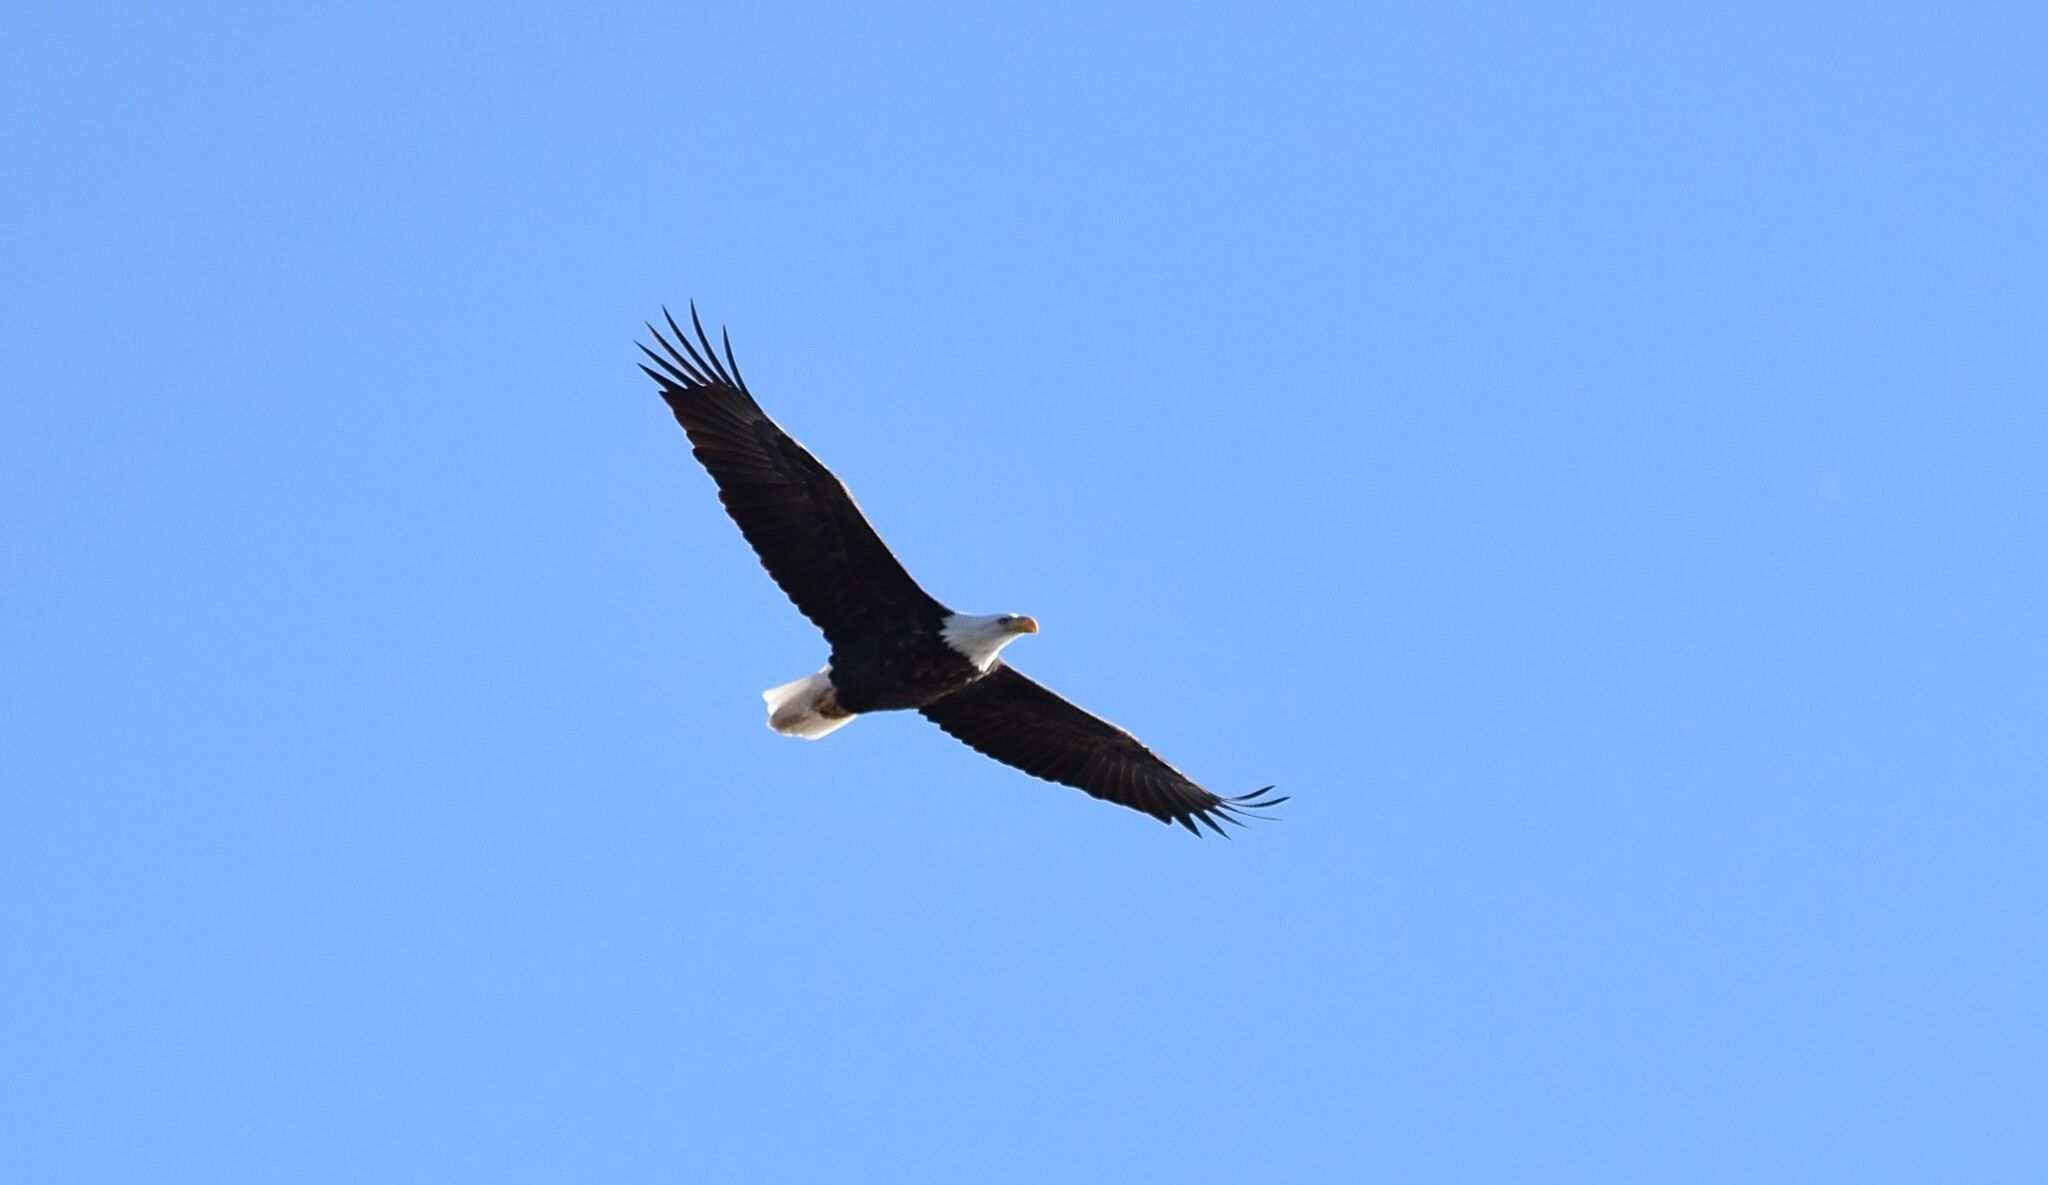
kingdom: Animalia
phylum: Chordata
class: Aves
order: Accipitriformes
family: Accipitridae
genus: Haliaeetus
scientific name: Haliaeetus leucocephalus
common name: Bald eagle
